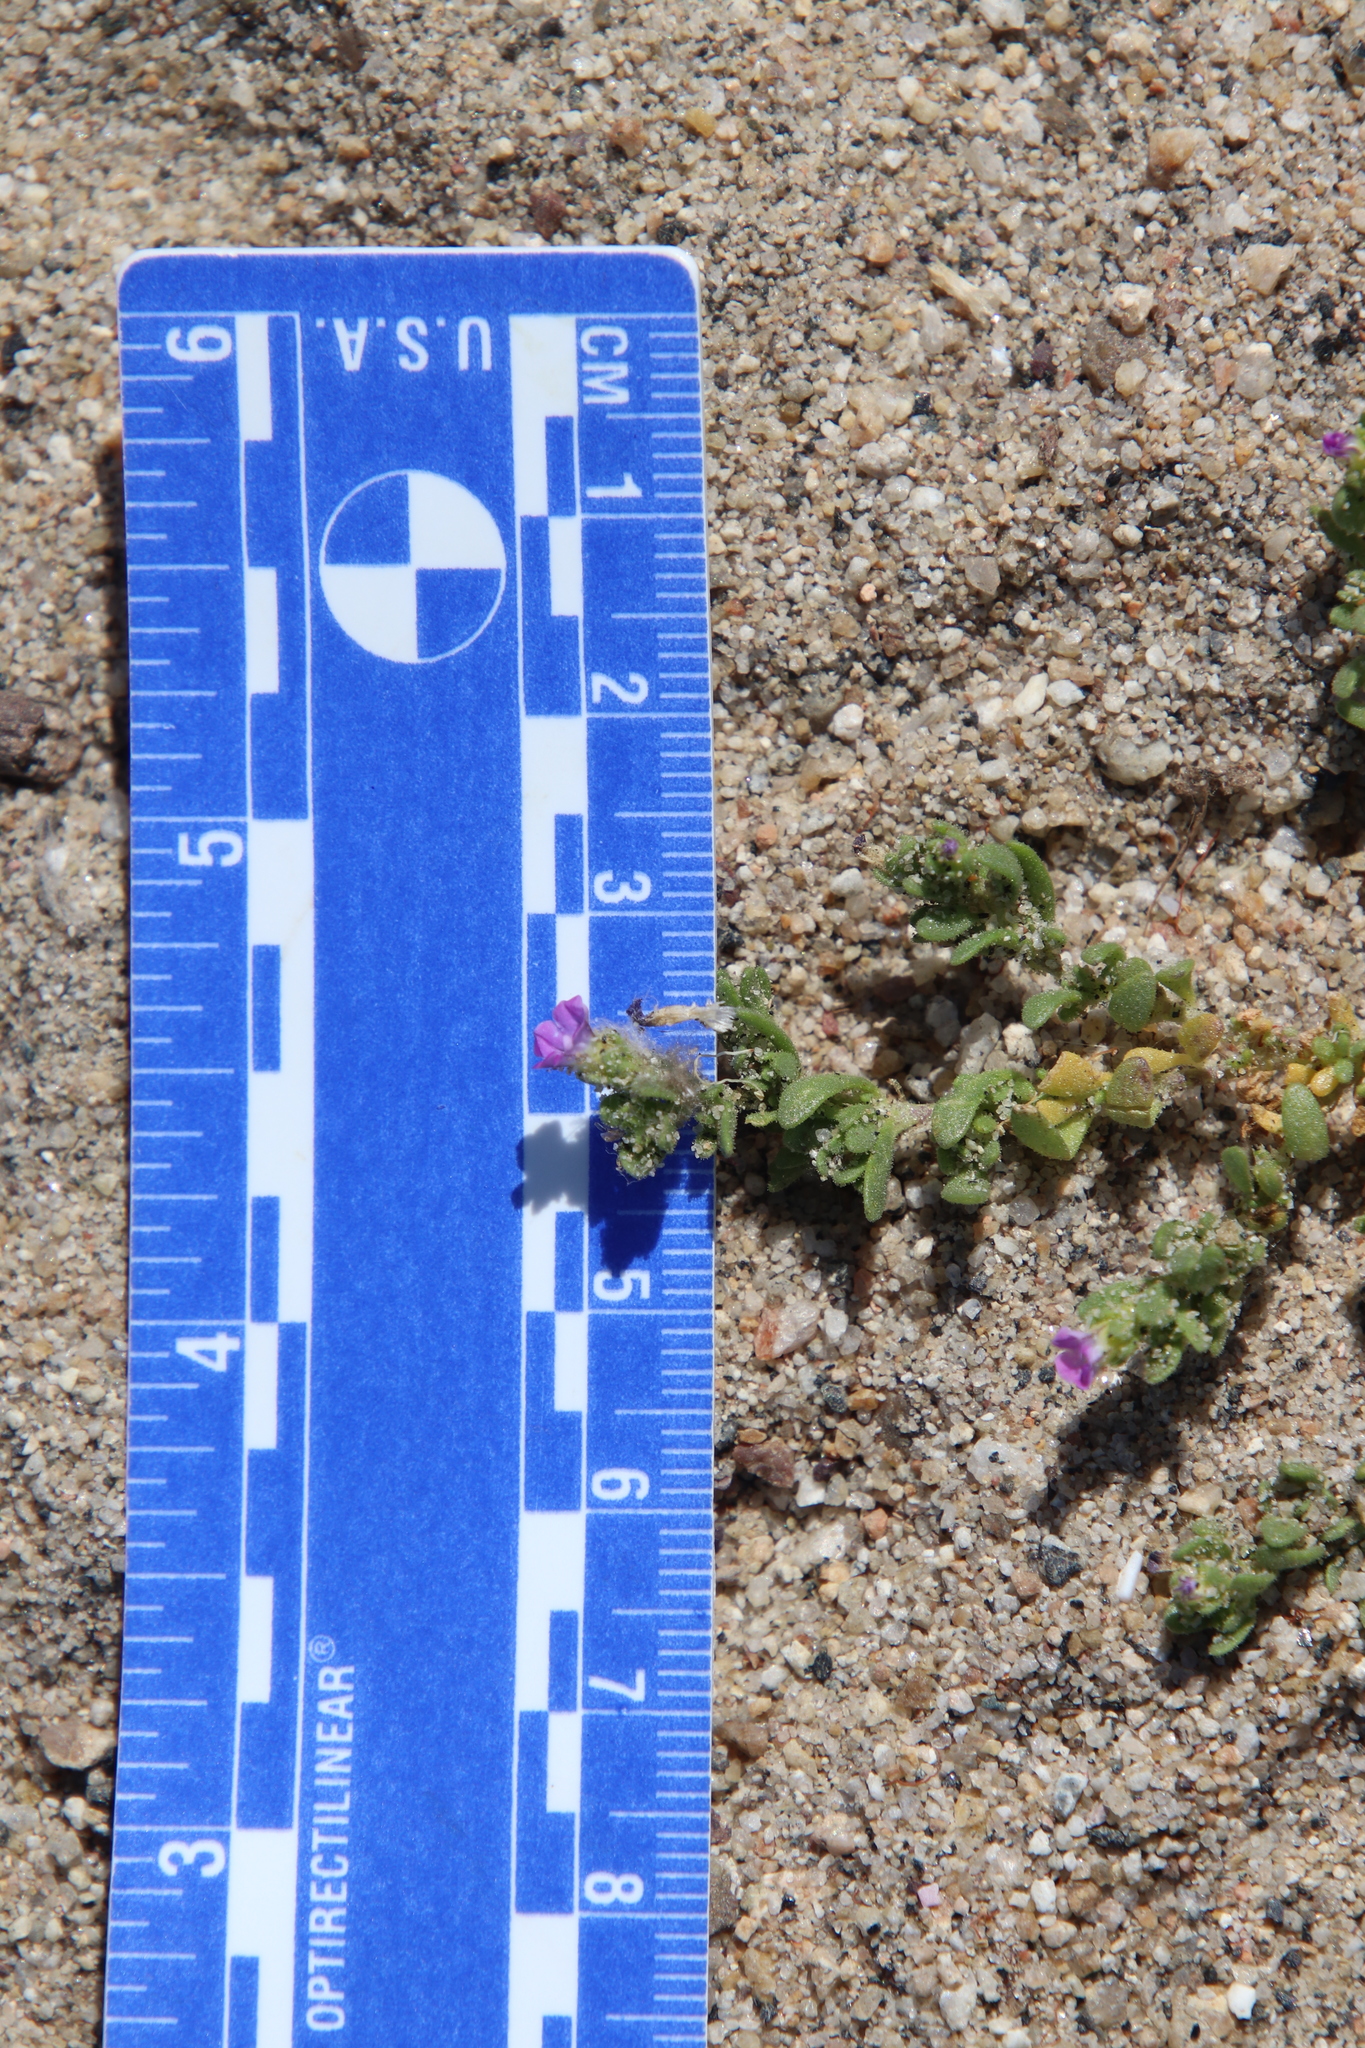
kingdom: Plantae
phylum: Tracheophyta
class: Magnoliopsida
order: Solanales
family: Solanaceae
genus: Calibrachoa
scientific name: Calibrachoa parviflora
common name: Seaside petunia
